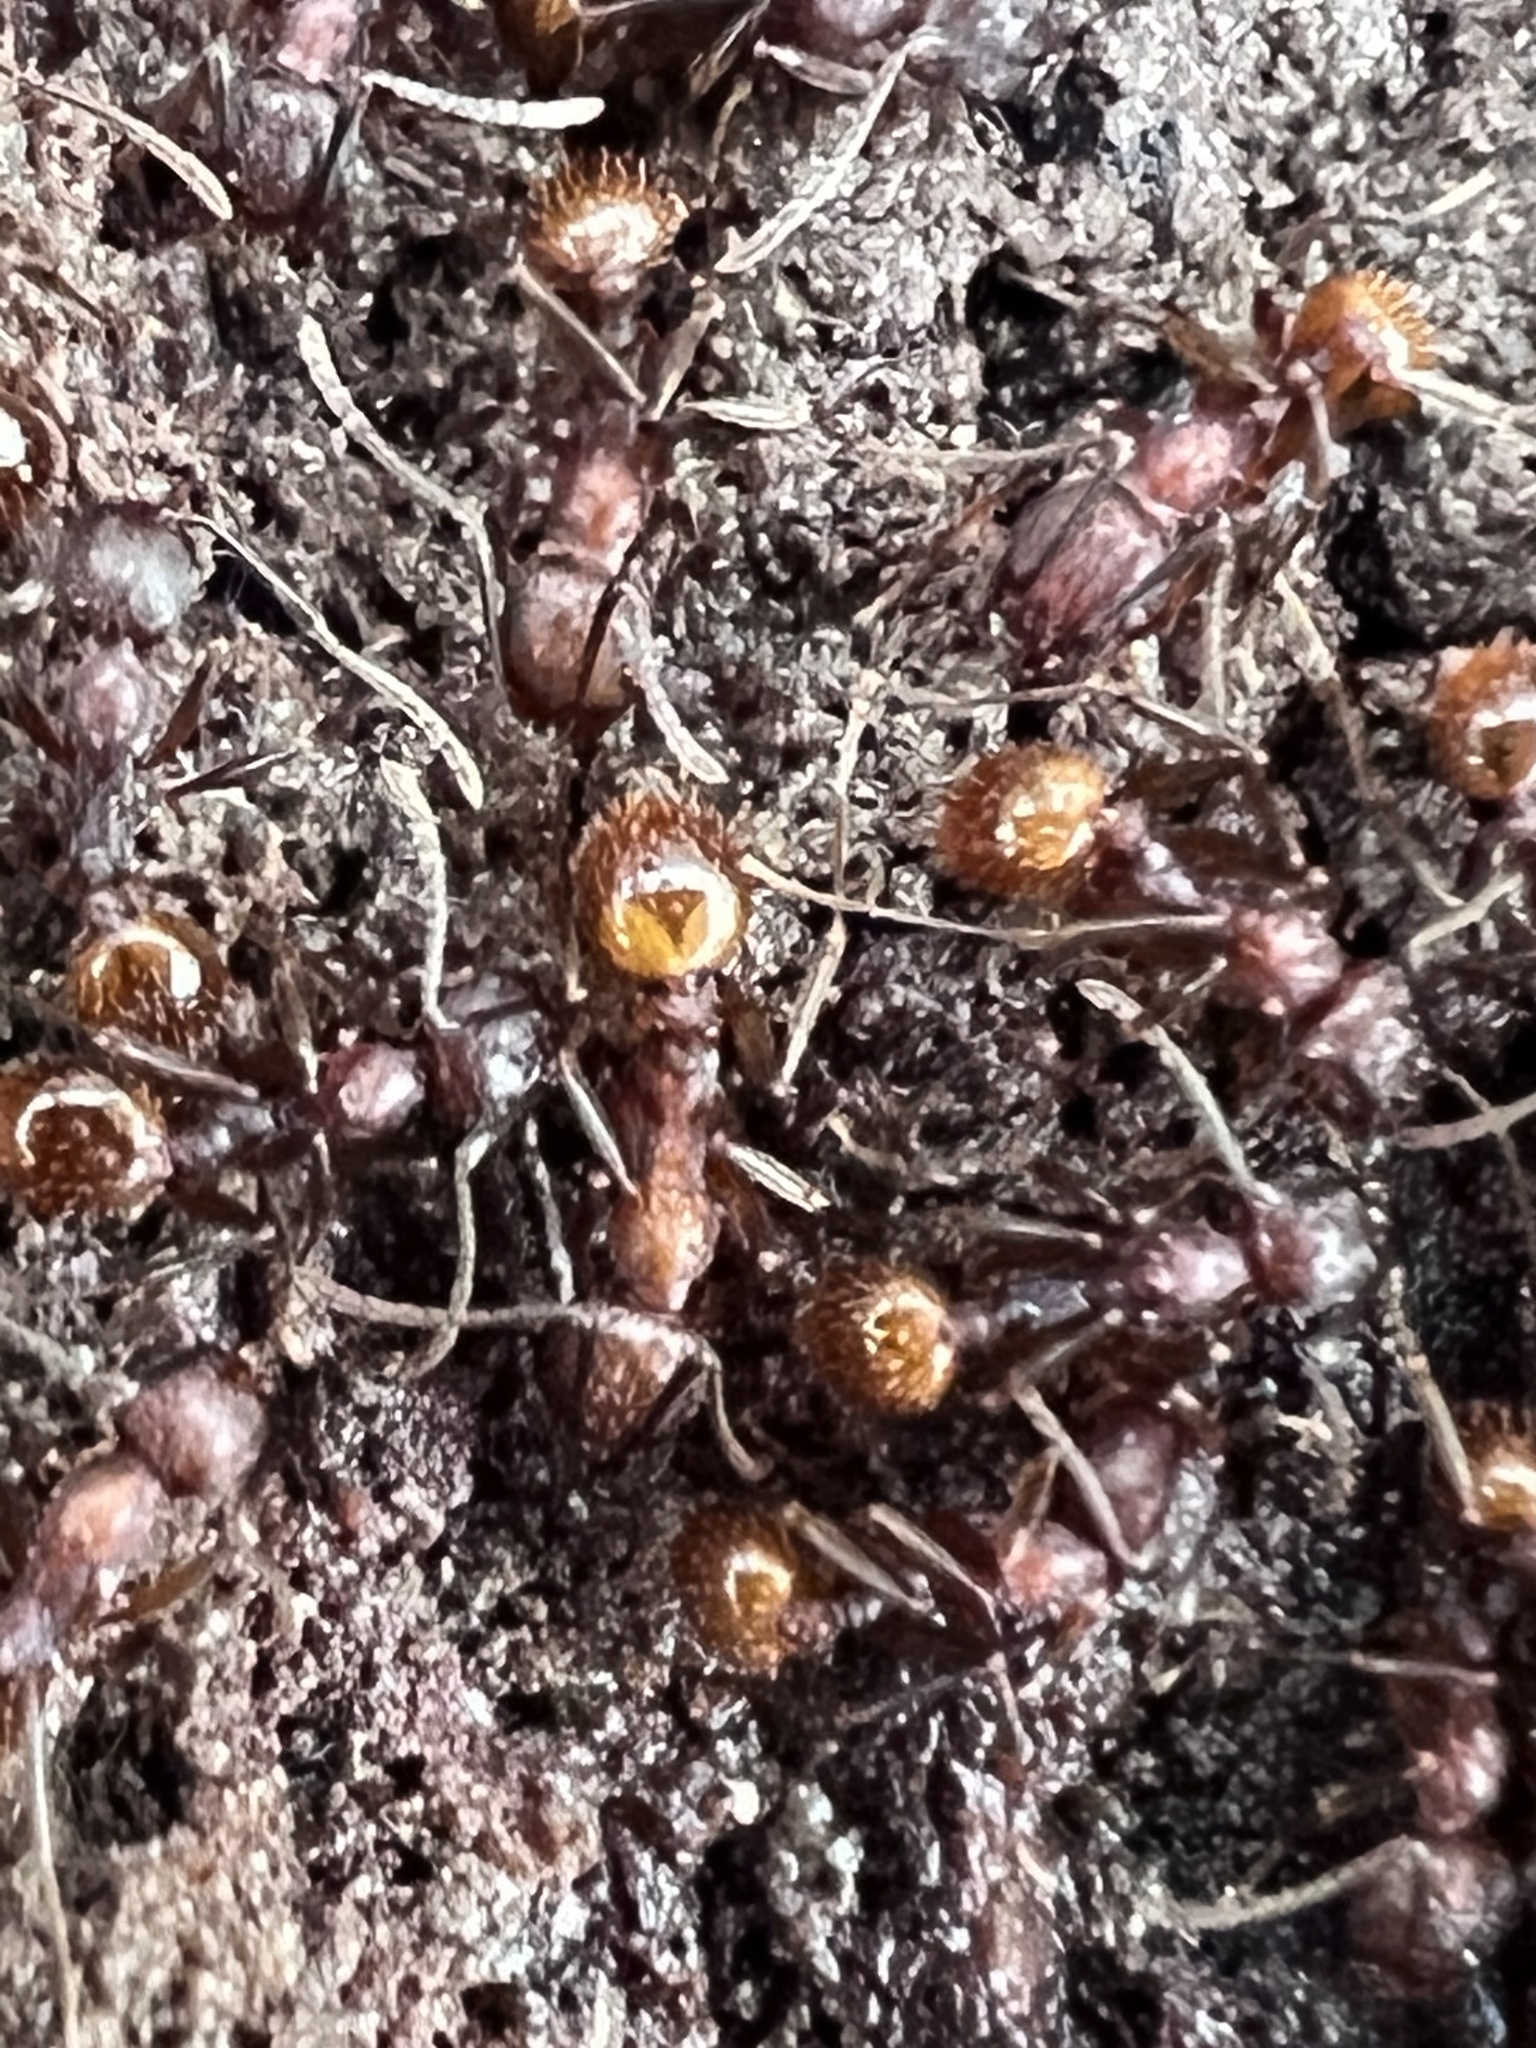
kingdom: Animalia
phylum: Arthropoda
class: Insecta
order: Hymenoptera
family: Formicidae
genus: Aphaenogaster
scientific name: Aphaenogaster fulva
